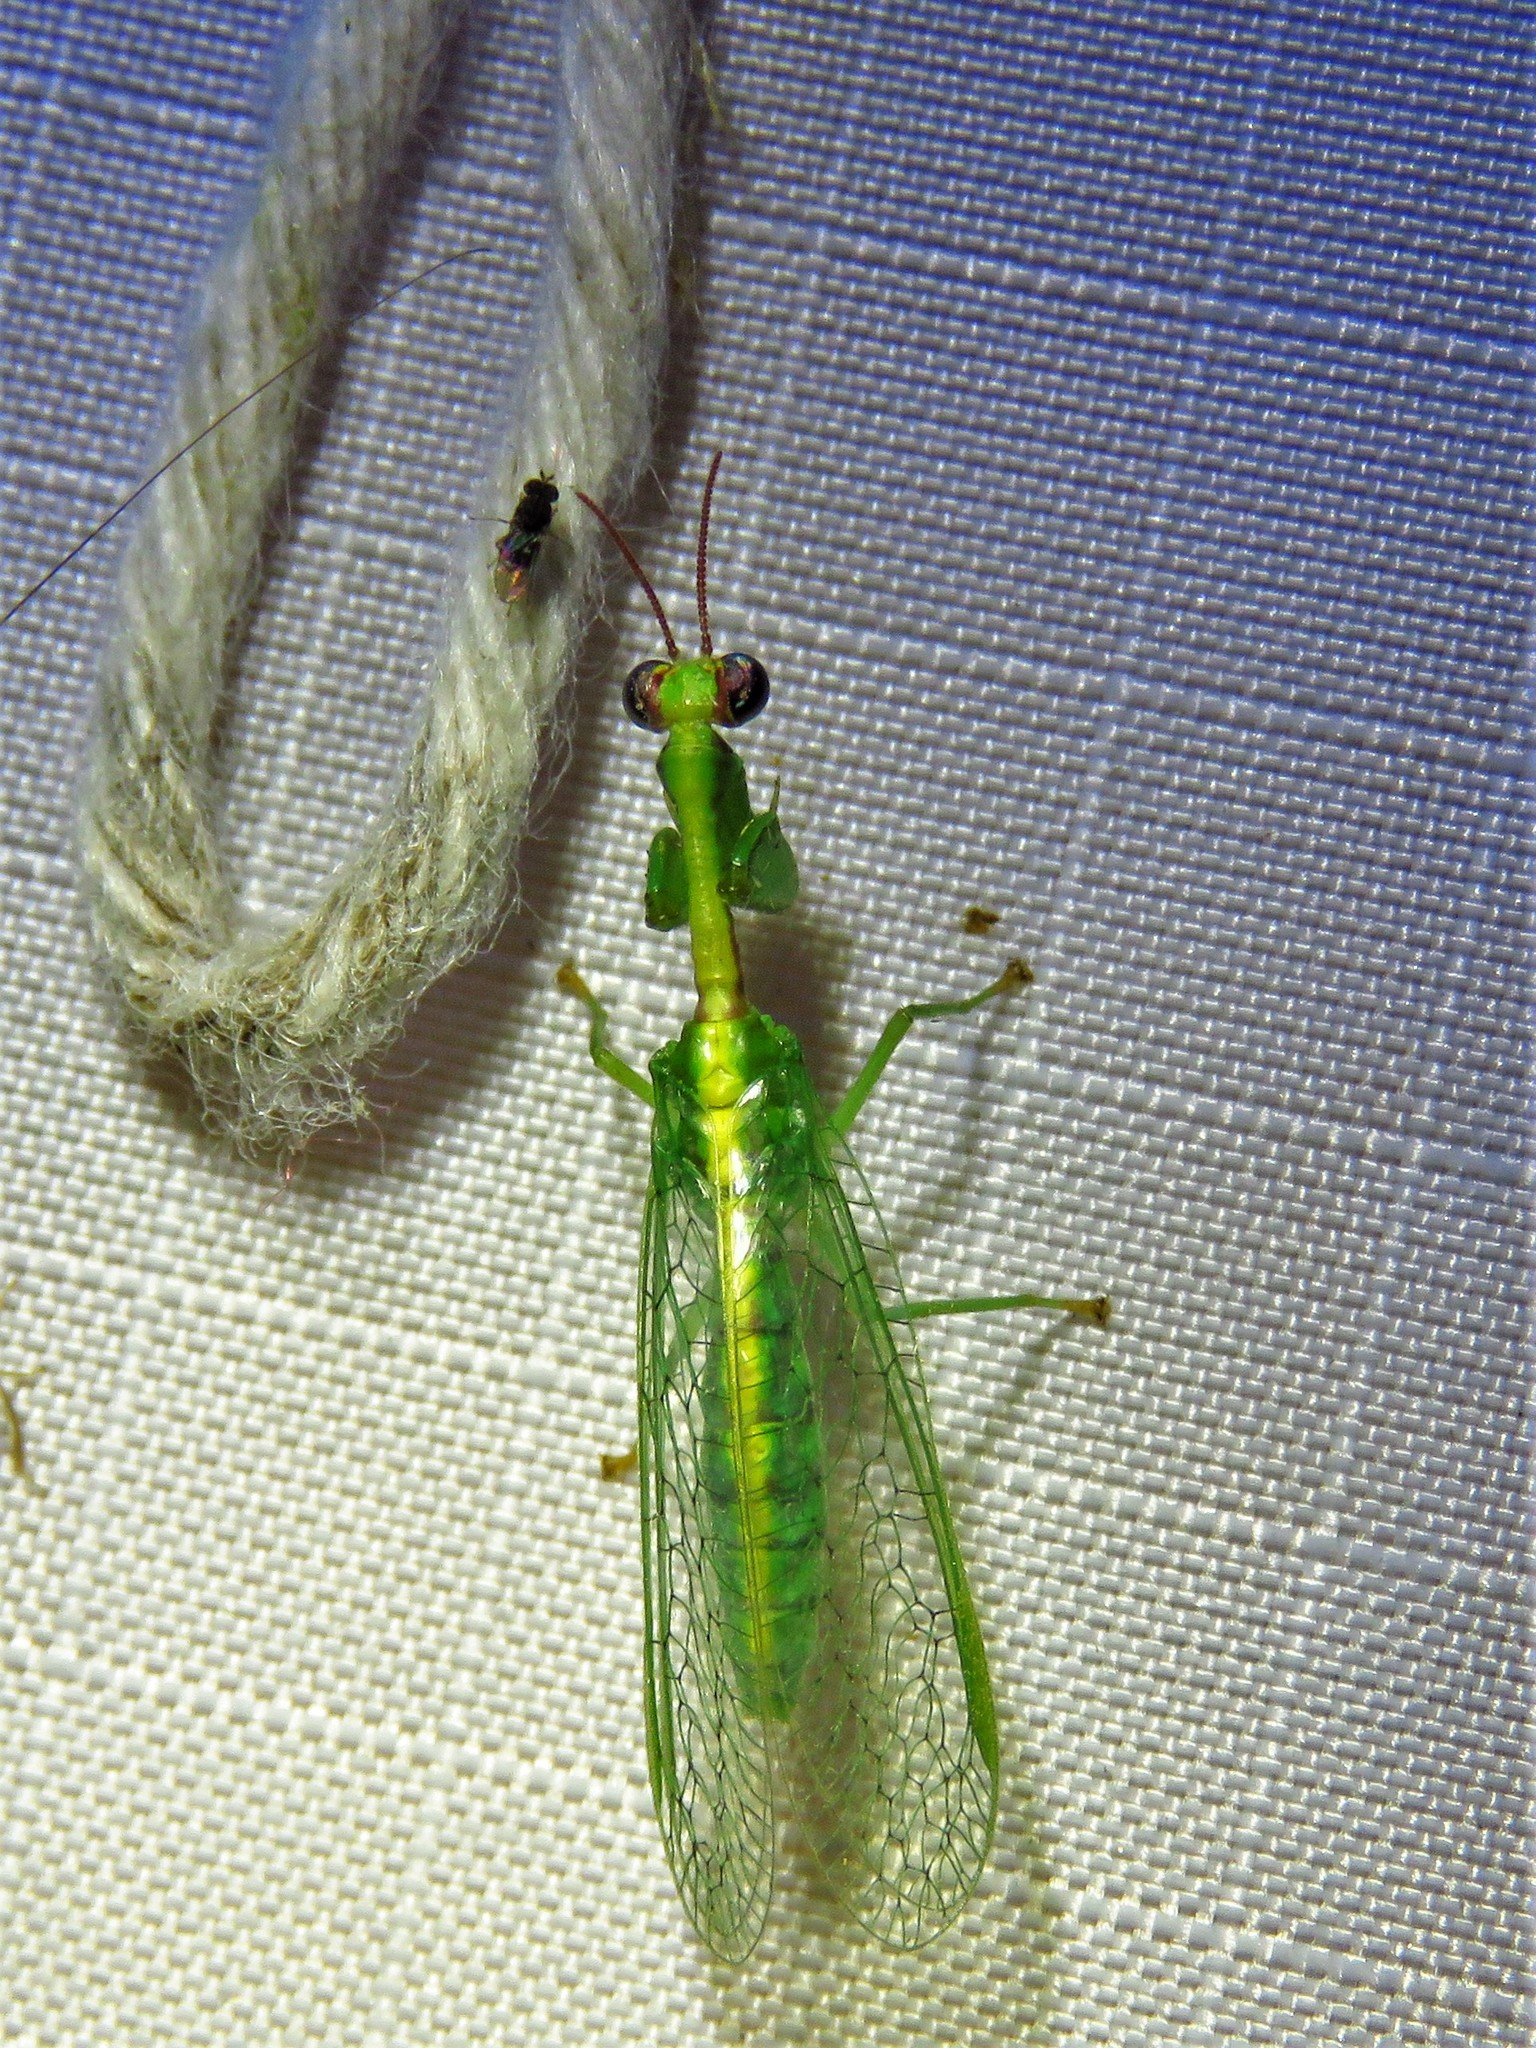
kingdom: Animalia
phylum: Arthropoda
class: Insecta
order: Neuroptera
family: Mantispidae
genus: Zeugomantispa
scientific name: Zeugomantispa minuta
